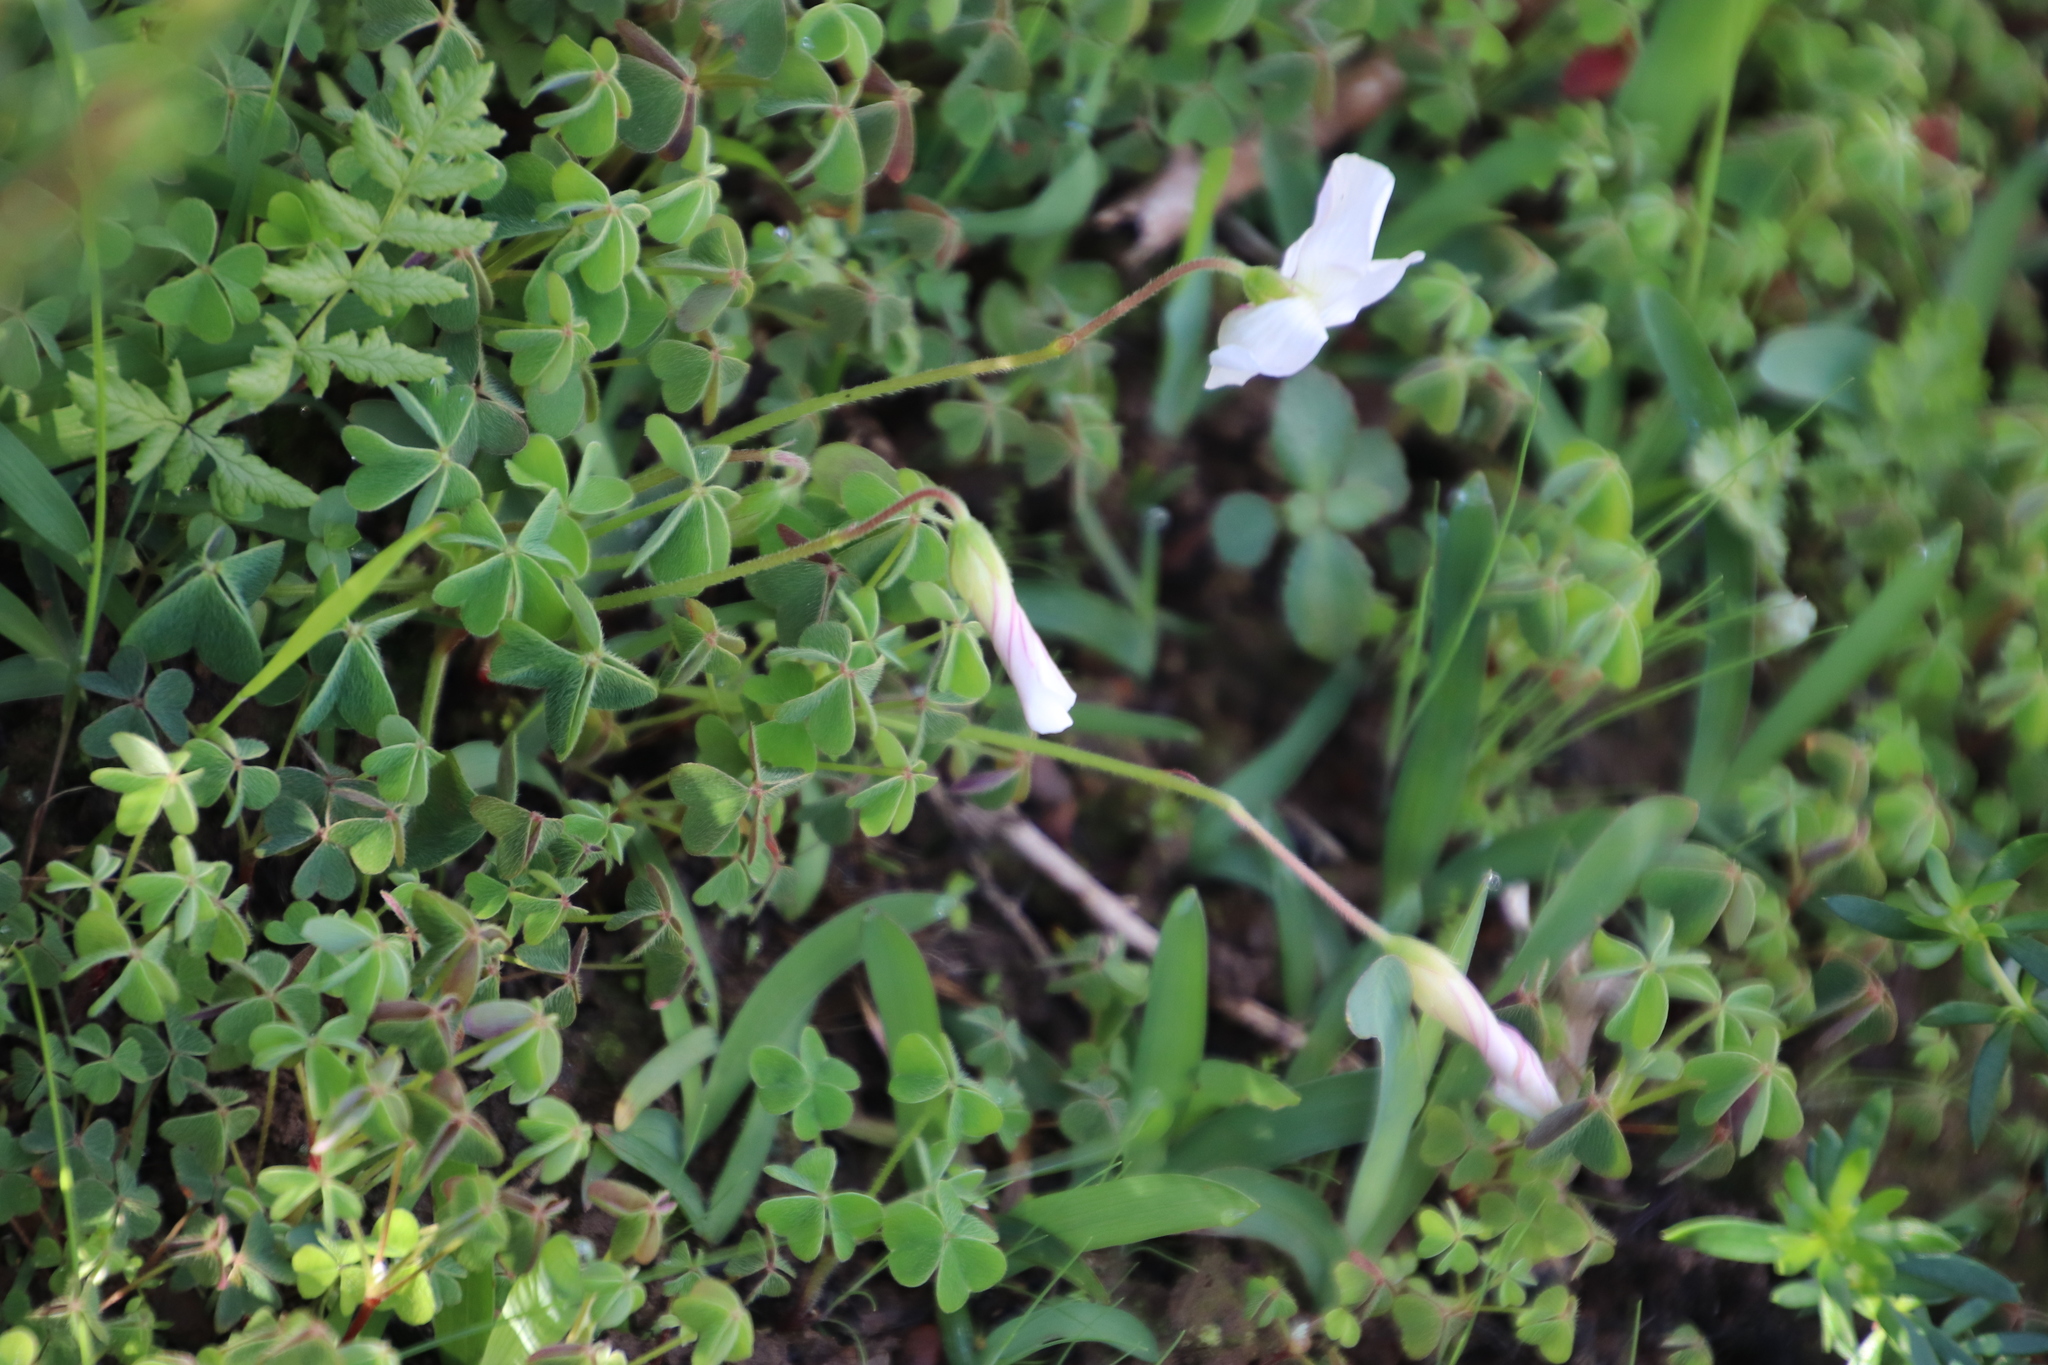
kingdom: Plantae
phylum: Tracheophyta
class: Magnoliopsida
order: Oxalidales
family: Oxalidaceae
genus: Oxalis
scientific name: Oxalis lanata
